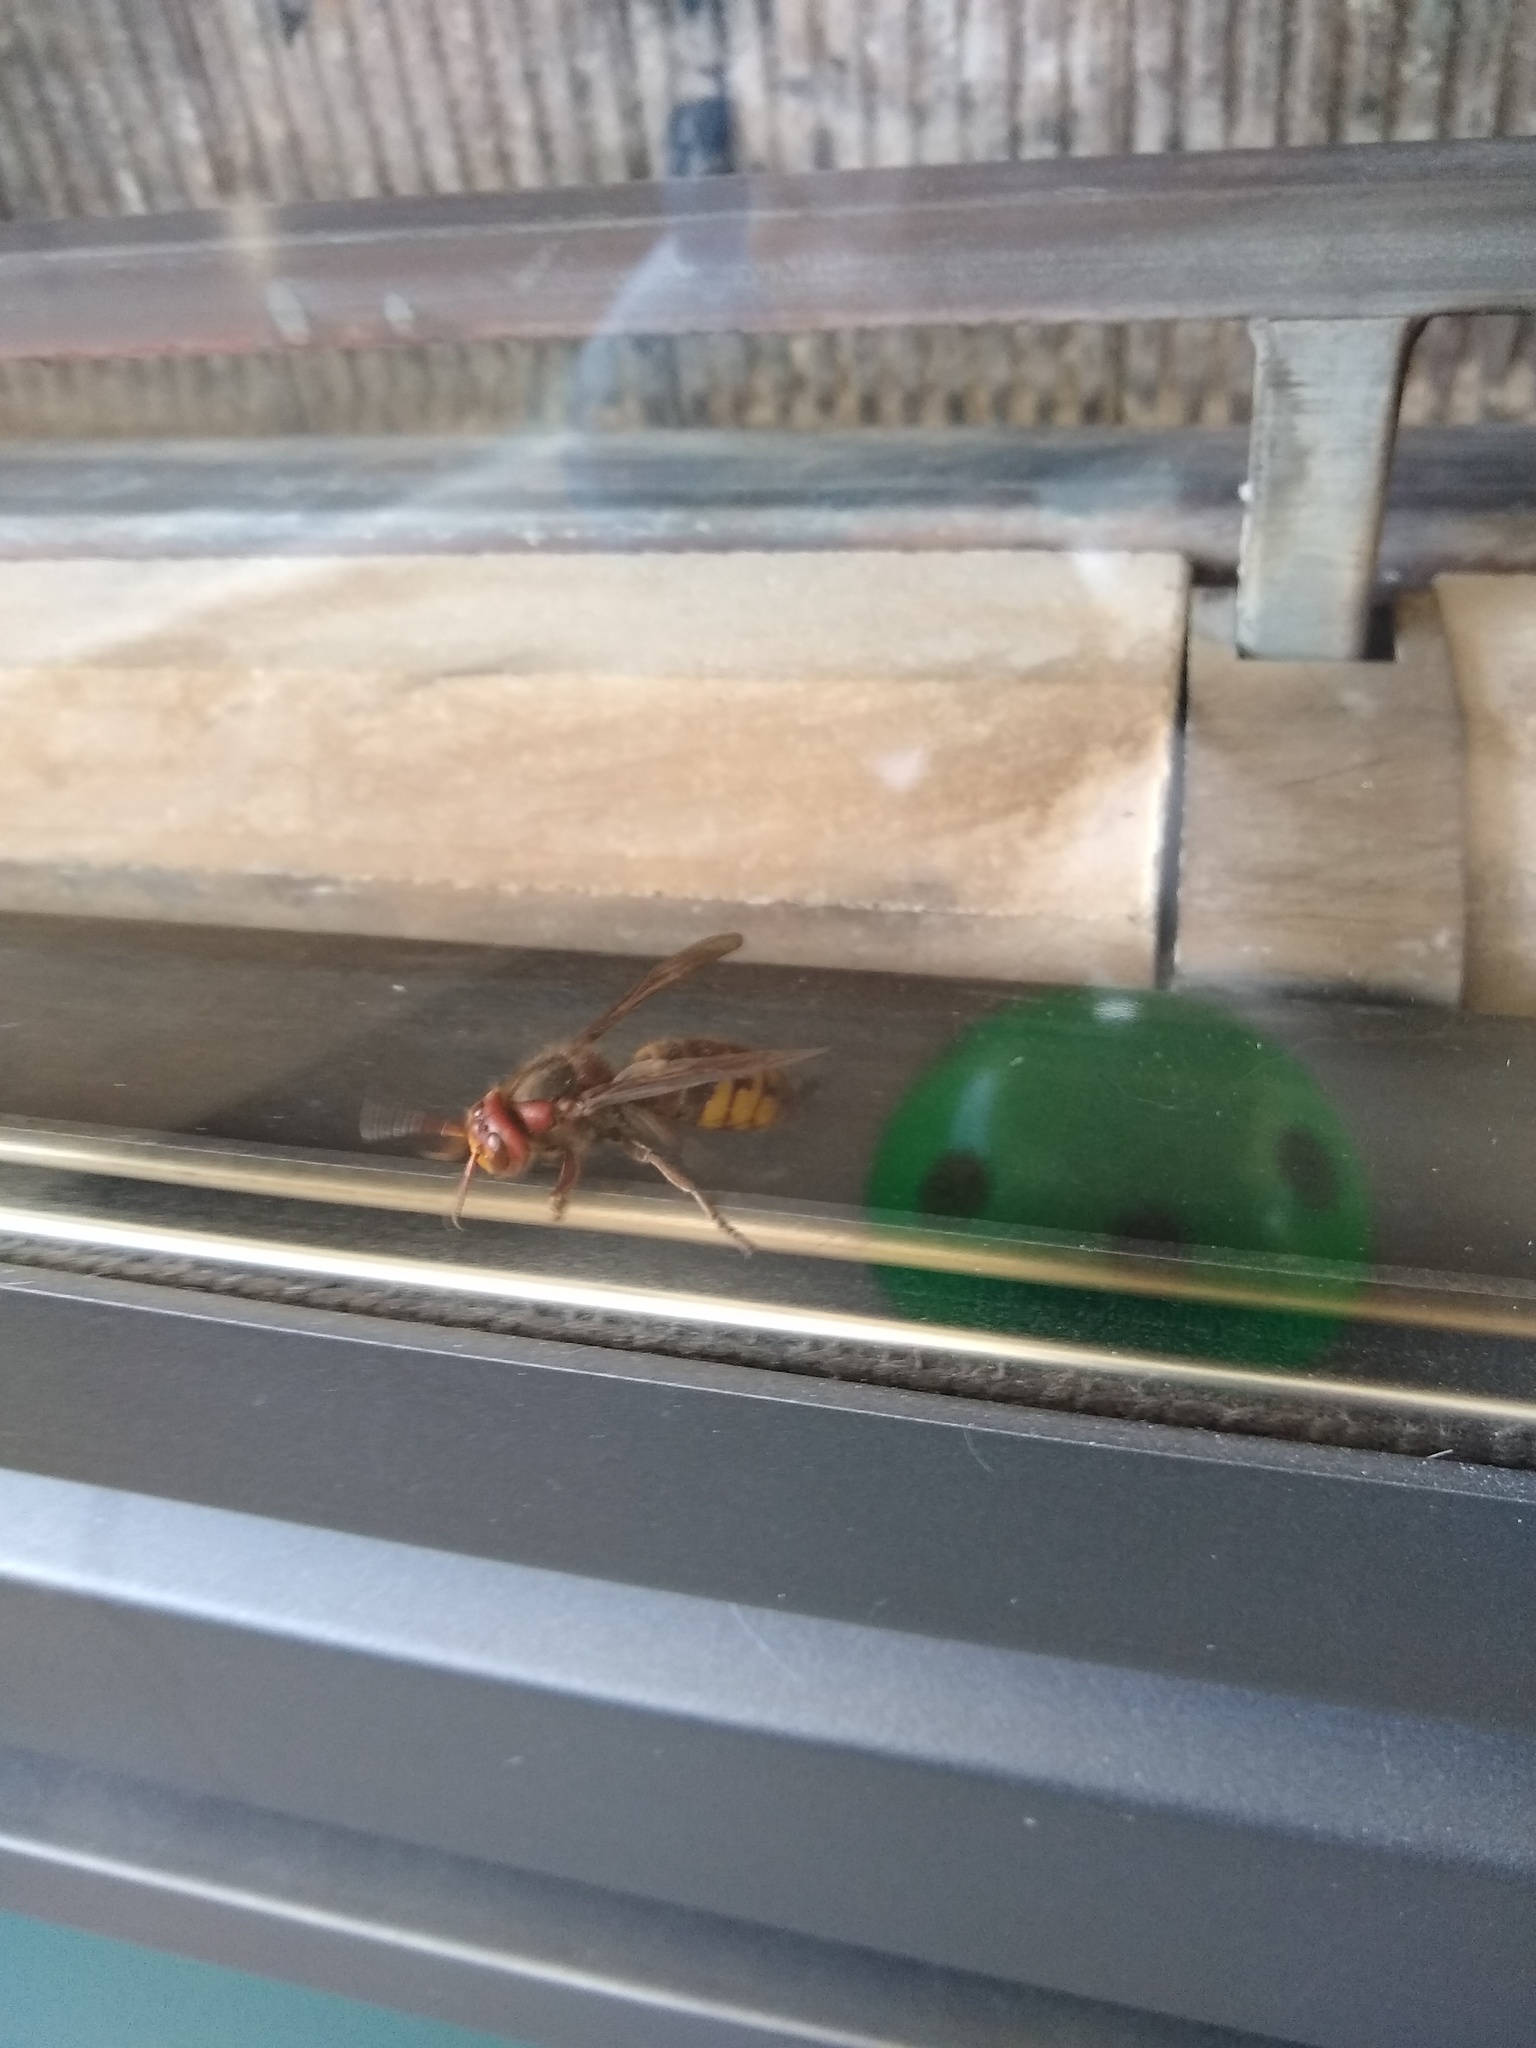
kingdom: Animalia
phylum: Arthropoda
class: Insecta
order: Hymenoptera
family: Vespidae
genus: Vespa
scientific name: Vespa crabro
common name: Hornet
